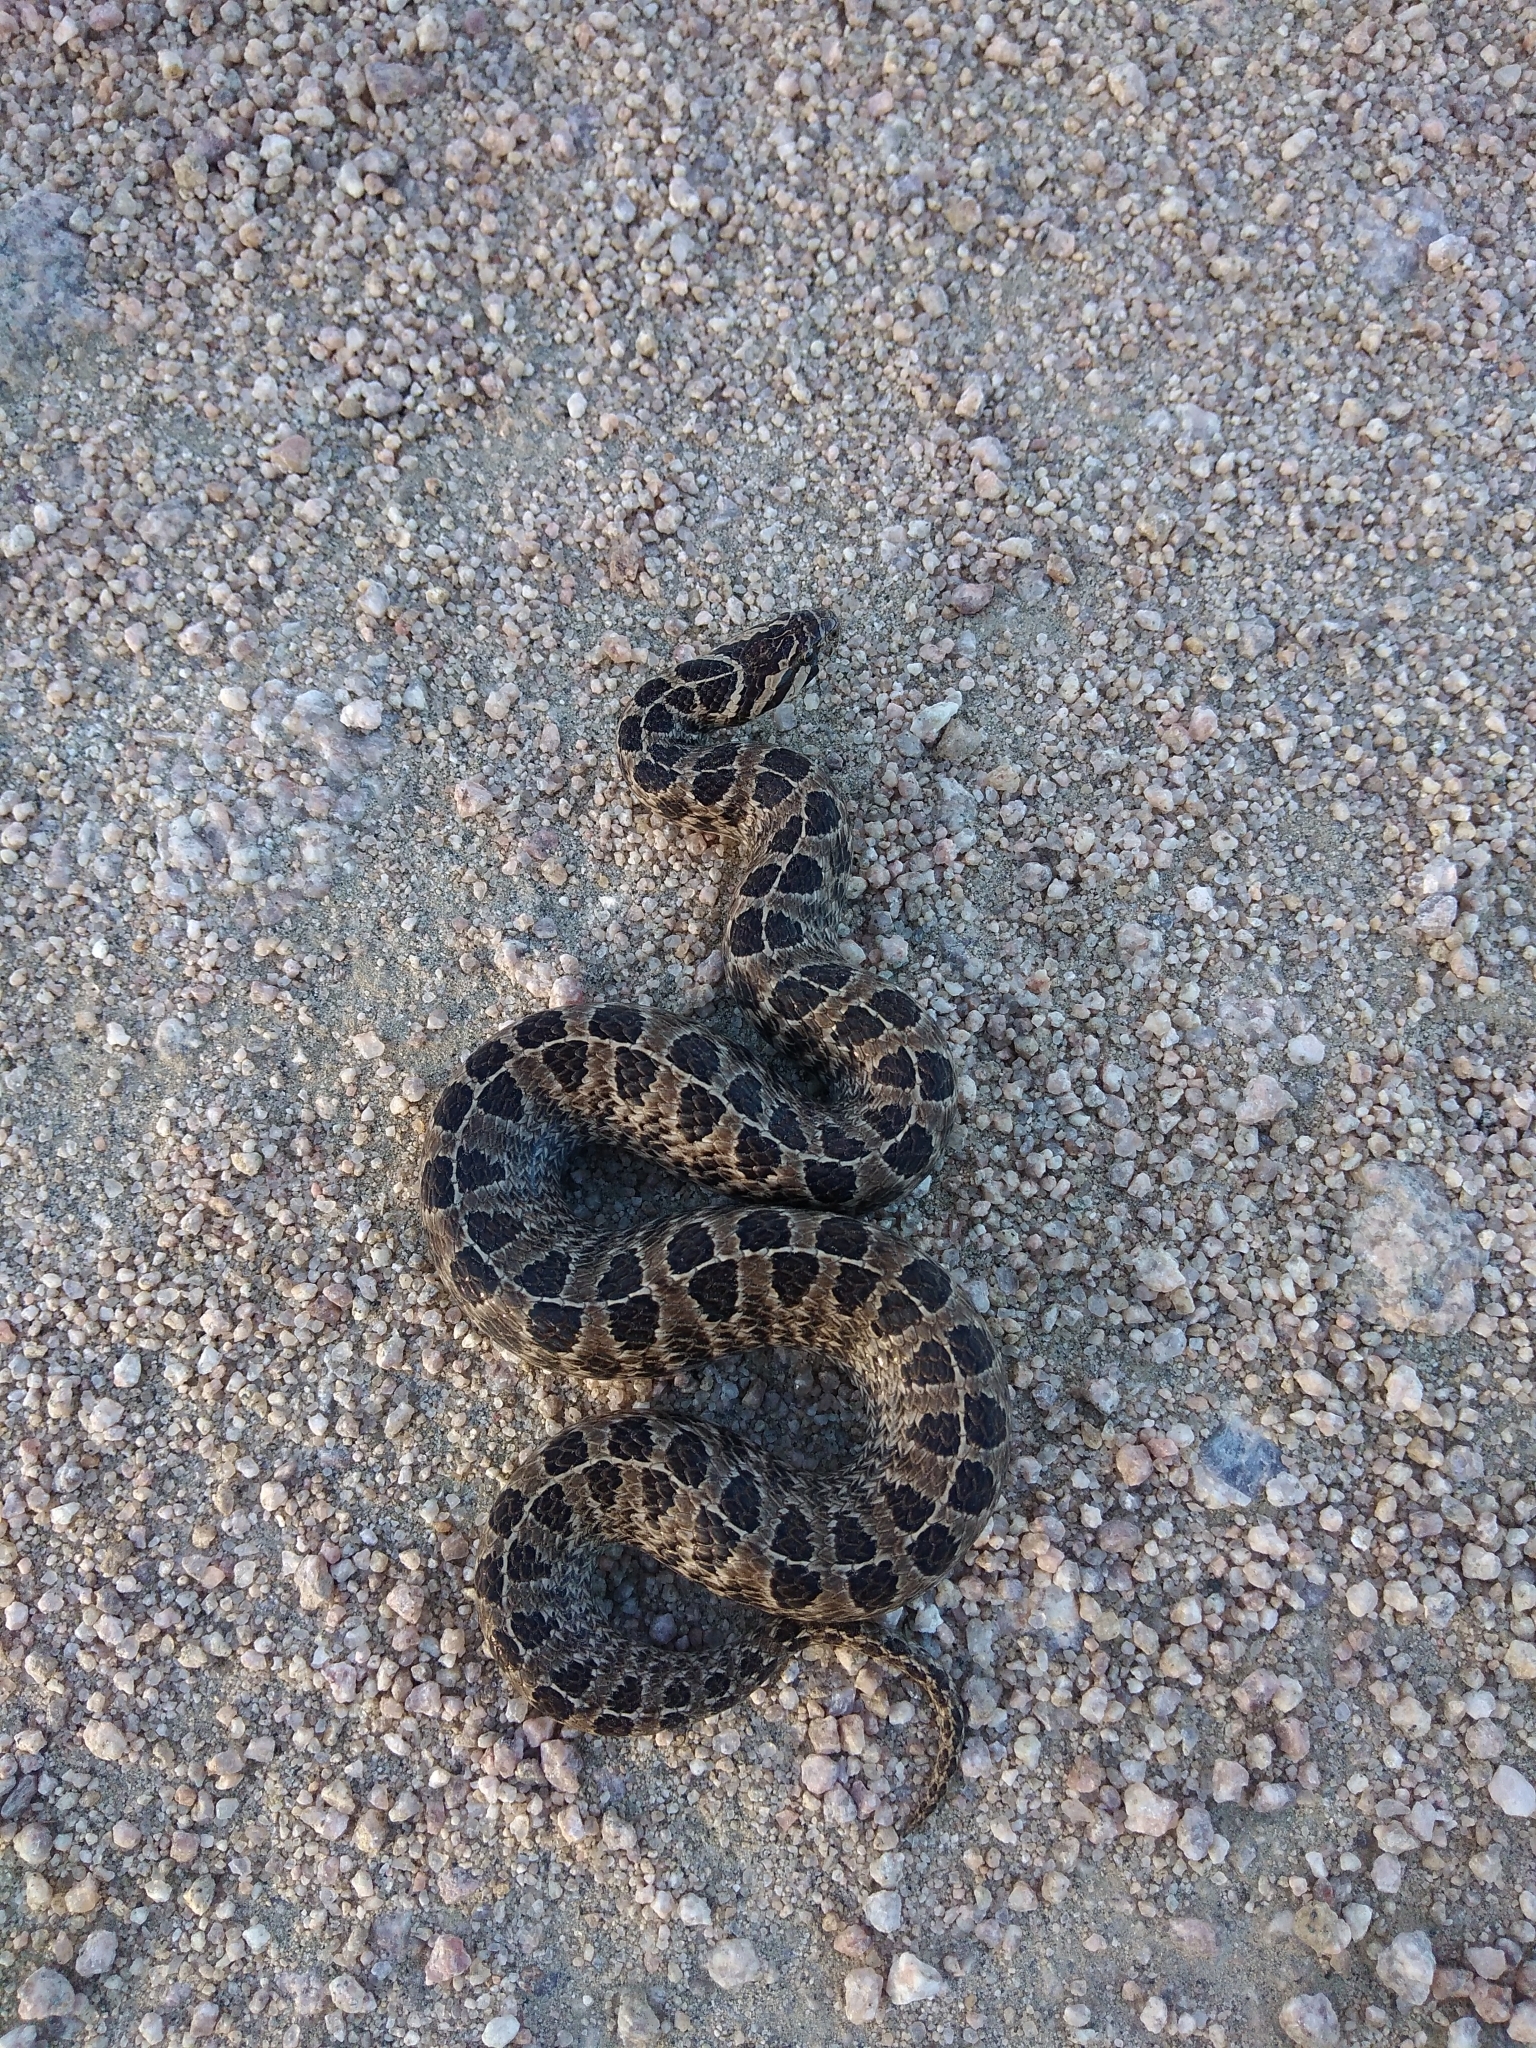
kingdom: Animalia
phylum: Chordata
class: Squamata
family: Colubridae
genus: Tachymenis
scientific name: Tachymenis
